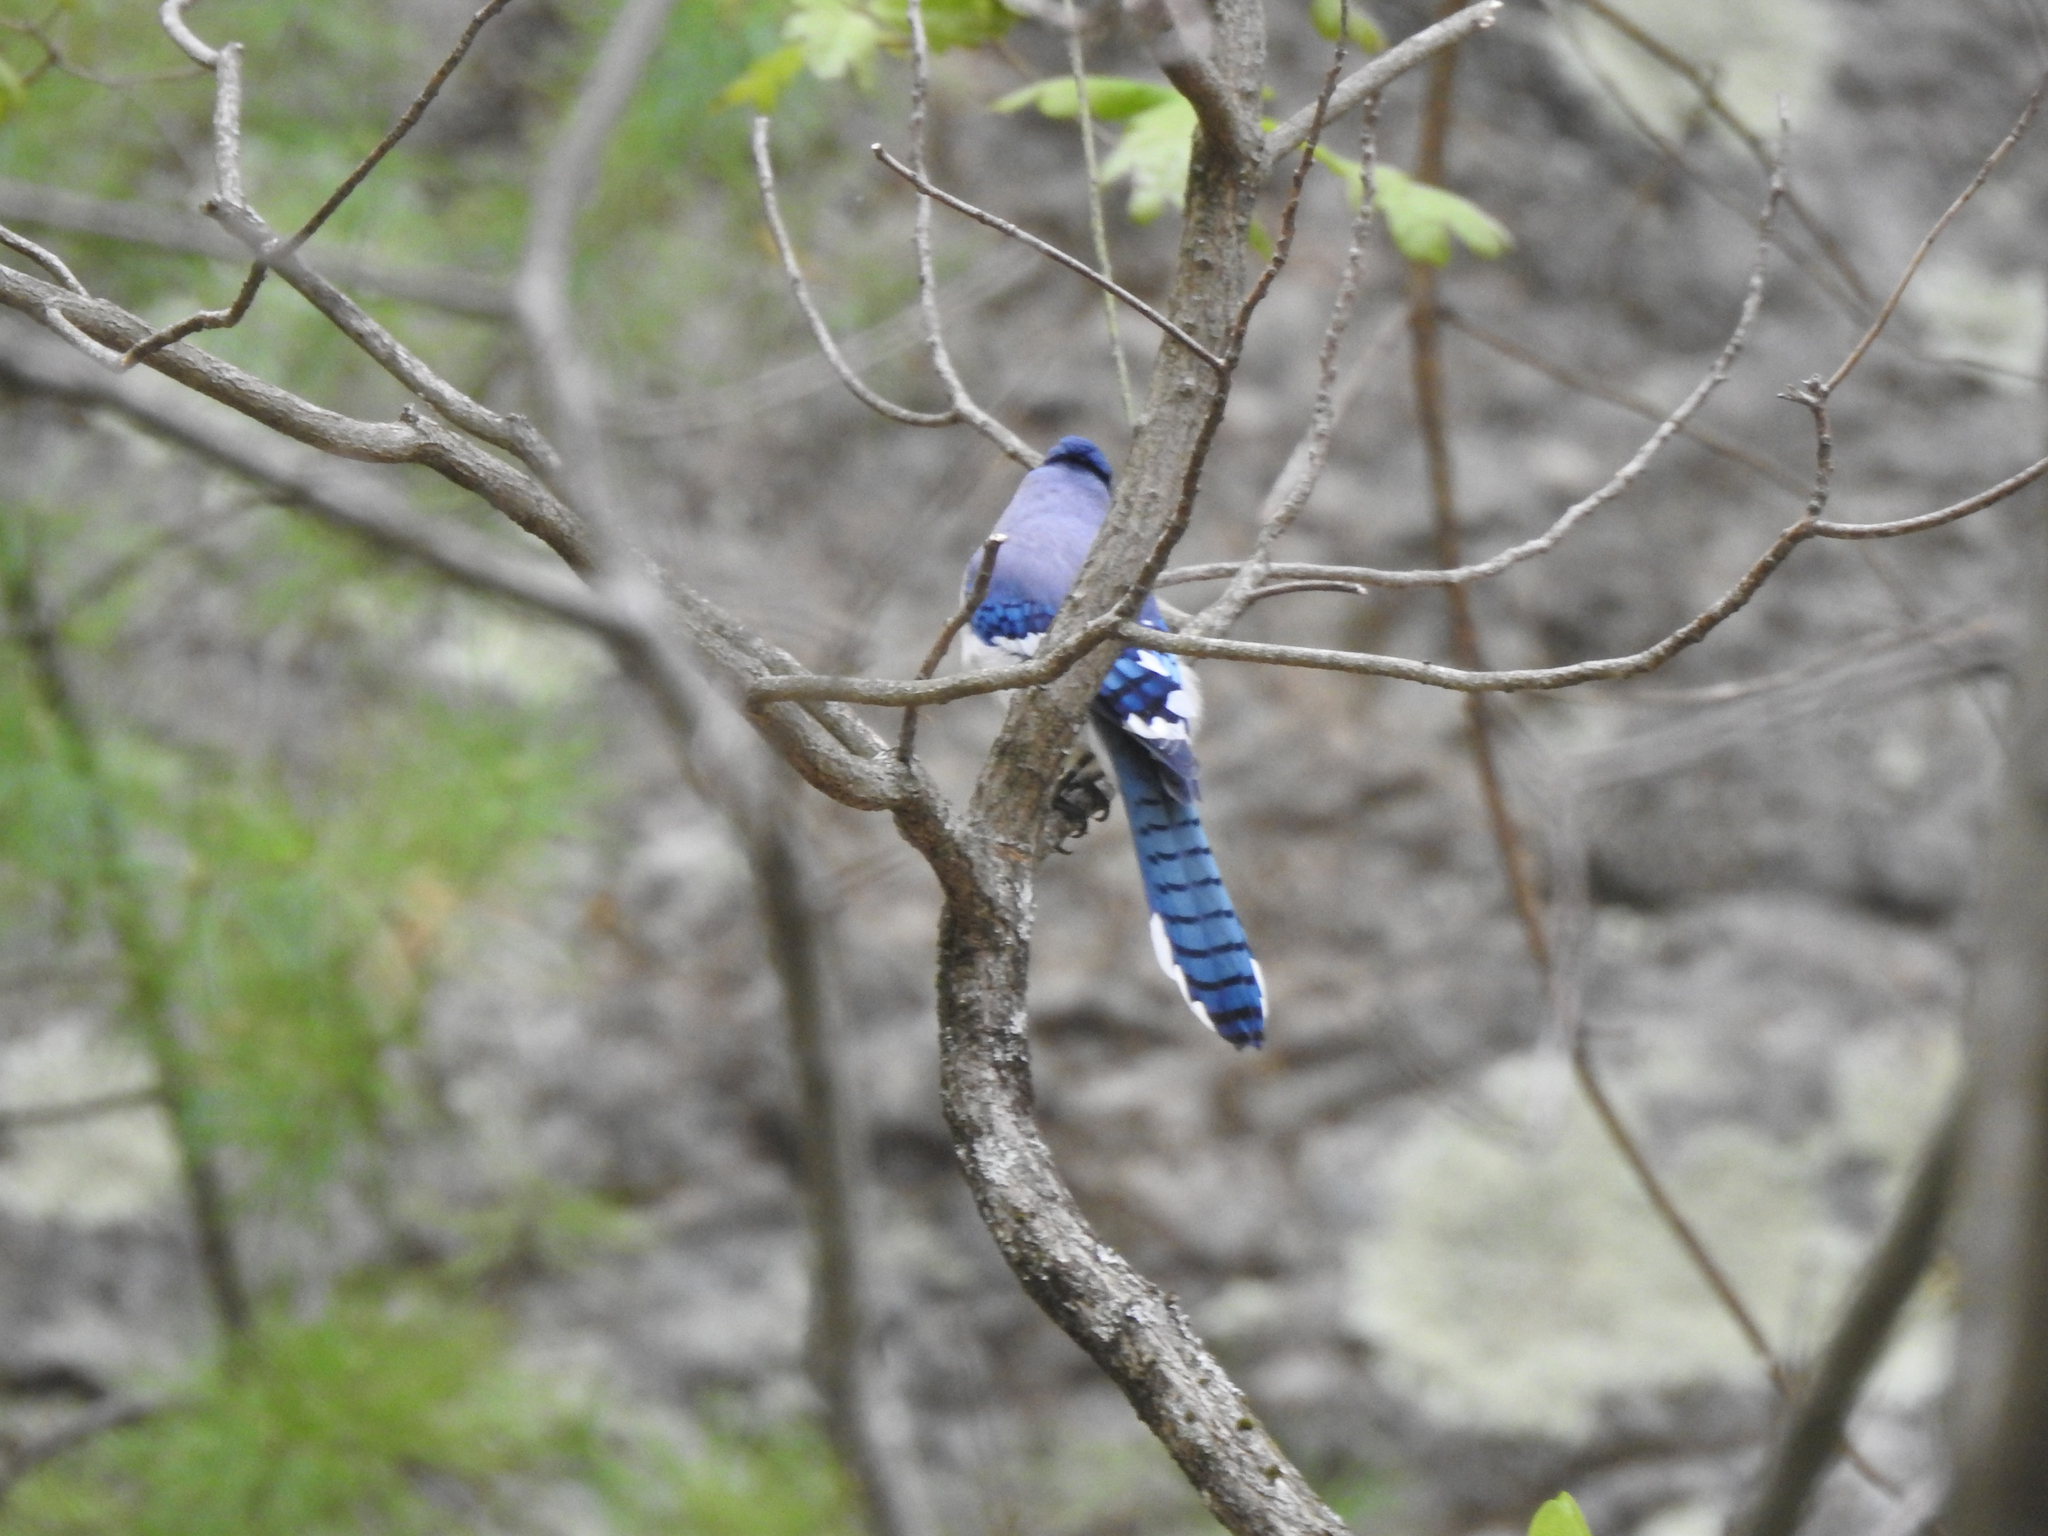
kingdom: Animalia
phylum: Chordata
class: Aves
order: Passeriformes
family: Corvidae
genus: Cyanocitta
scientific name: Cyanocitta cristata
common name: Blue jay
